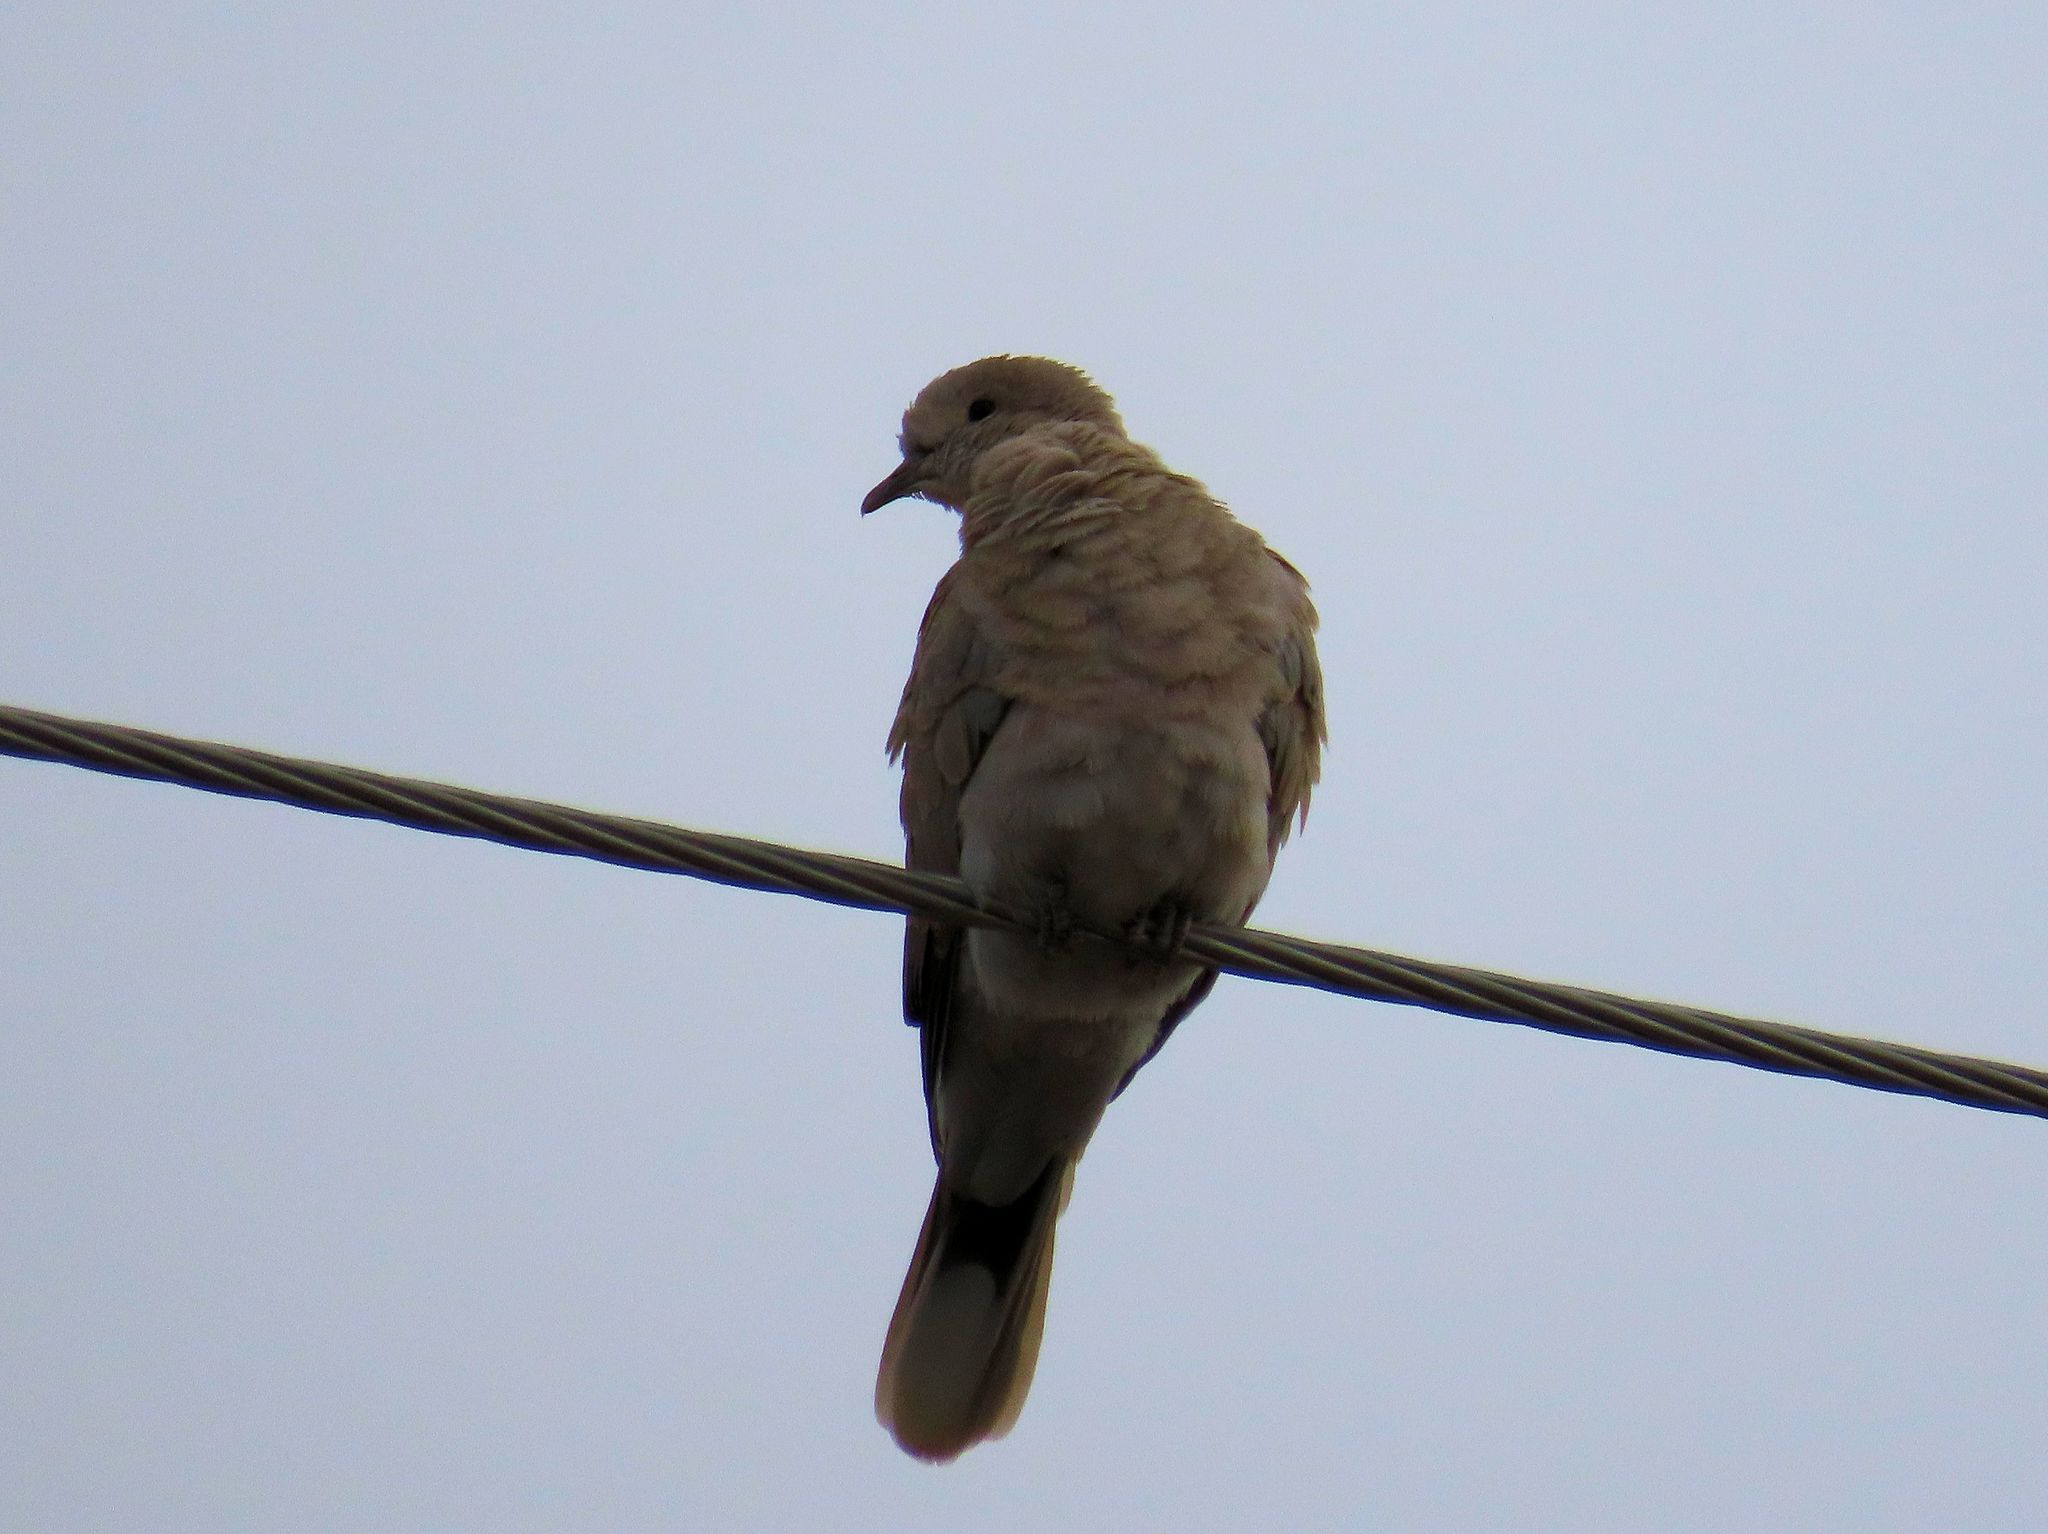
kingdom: Animalia
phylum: Chordata
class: Aves
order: Columbiformes
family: Columbidae
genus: Streptopelia
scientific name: Streptopelia decaocto
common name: Eurasian collared dove
